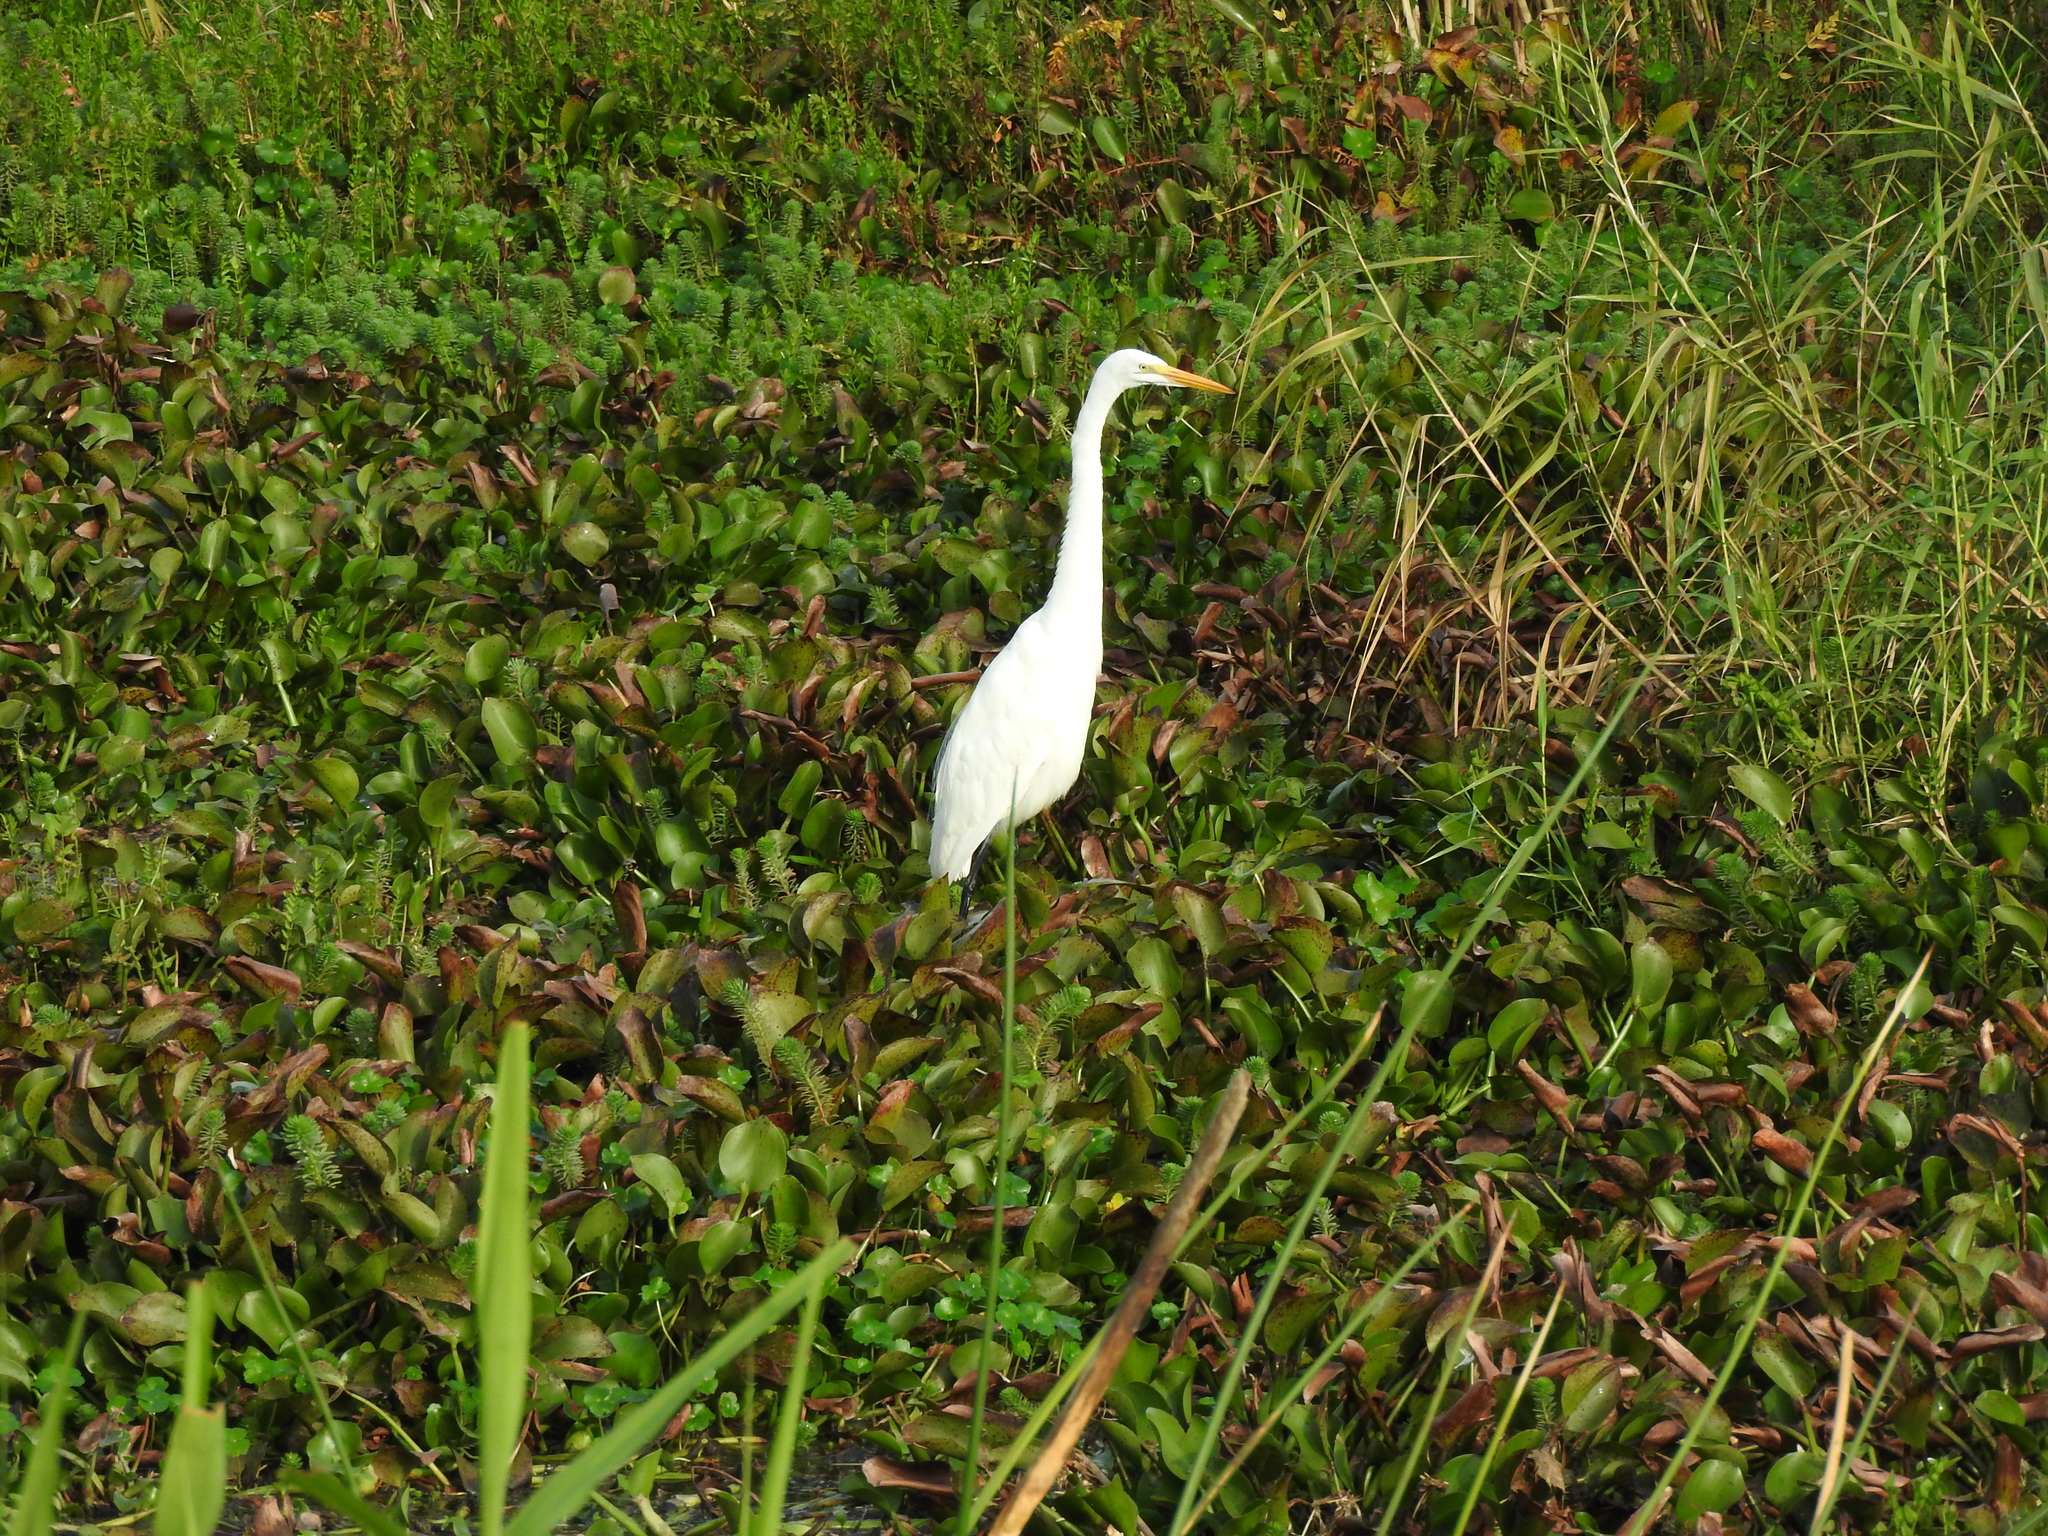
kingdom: Animalia
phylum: Chordata
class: Aves
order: Pelecaniformes
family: Ardeidae
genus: Ardea
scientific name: Ardea alba
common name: Great egret
